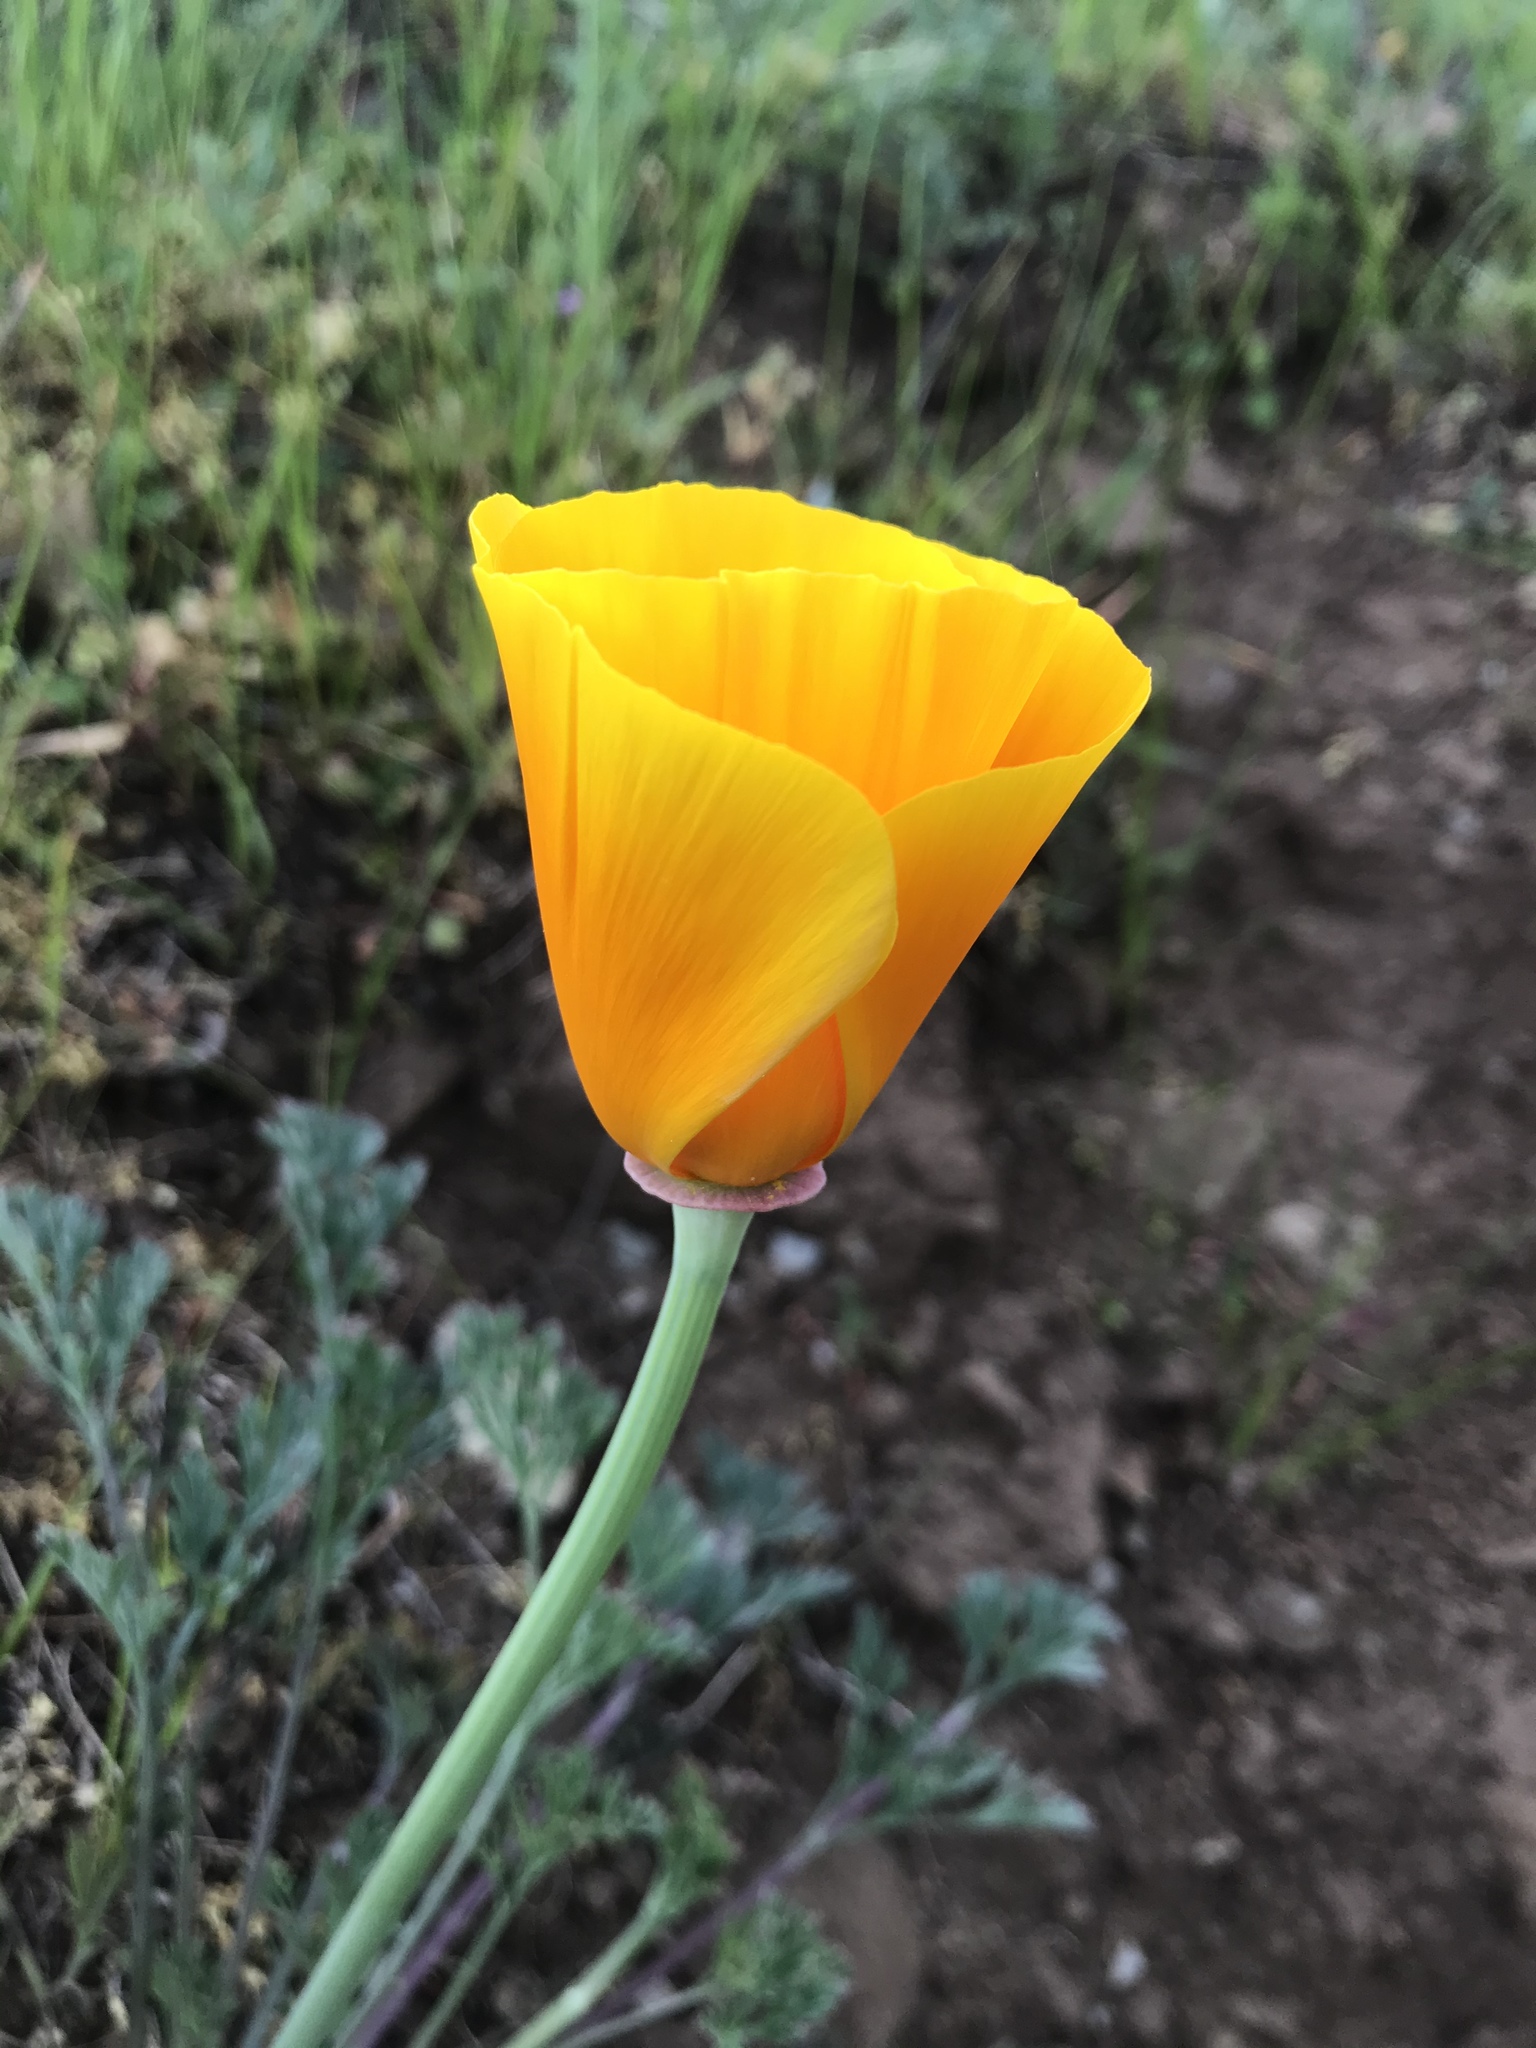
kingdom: Plantae
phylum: Tracheophyta
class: Magnoliopsida
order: Ranunculales
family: Papaveraceae
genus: Eschscholzia
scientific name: Eschscholzia californica
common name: California poppy
